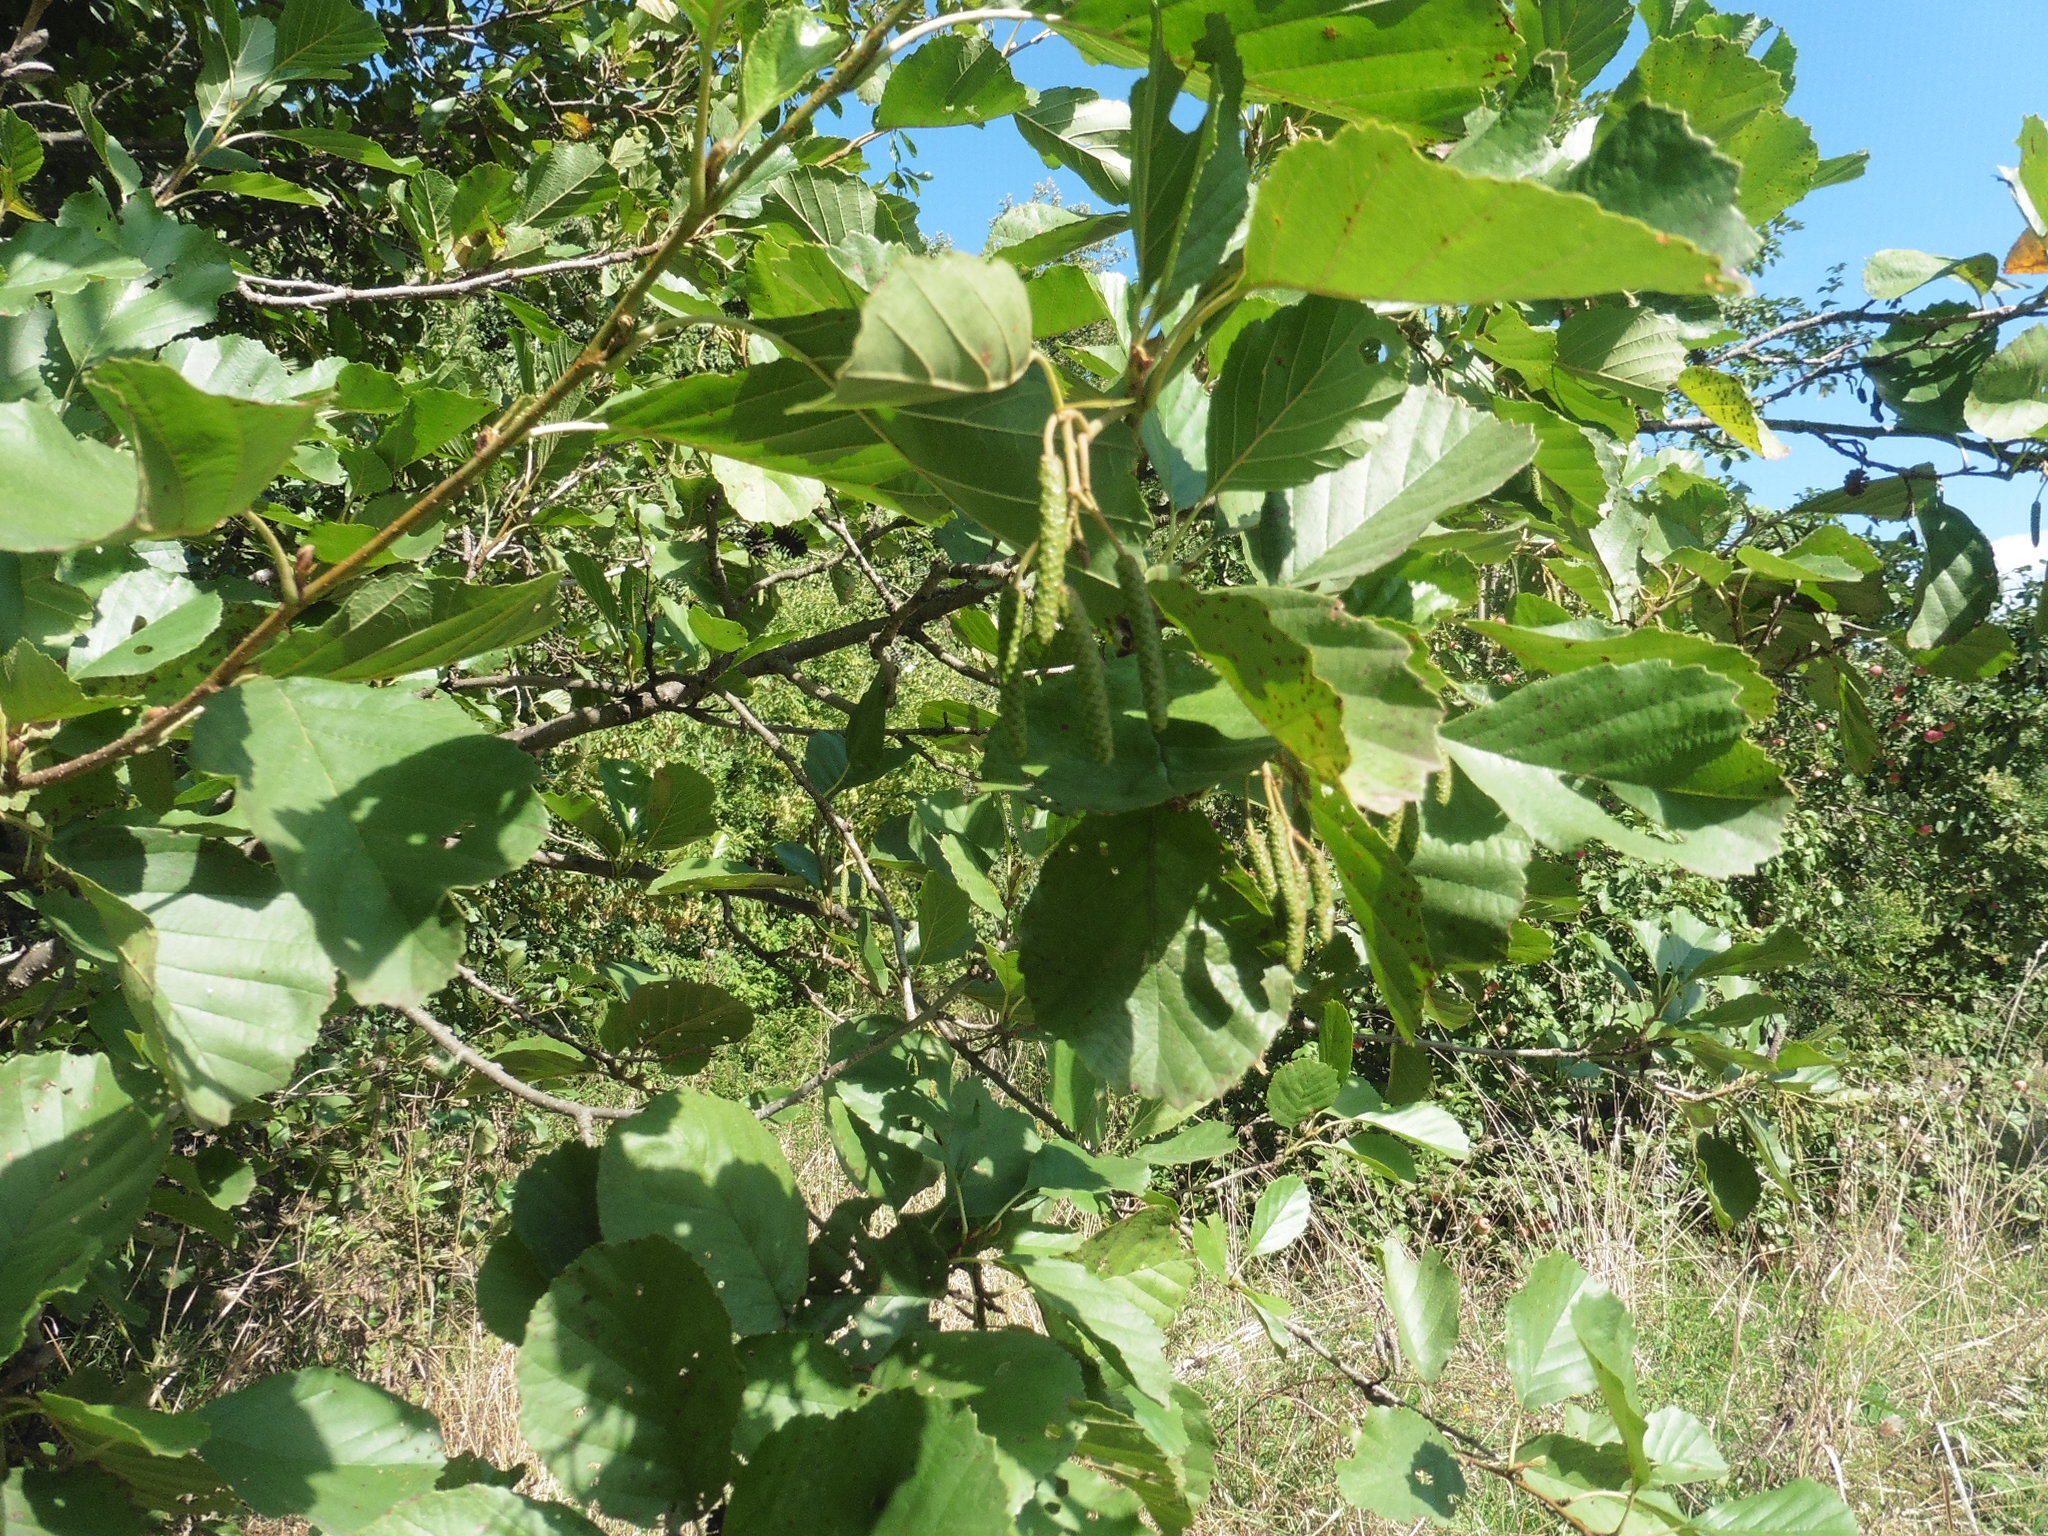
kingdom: Plantae
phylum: Tracheophyta
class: Magnoliopsida
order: Fagales
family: Betulaceae
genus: Alnus
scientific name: Alnus glutinosa
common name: Black alder
